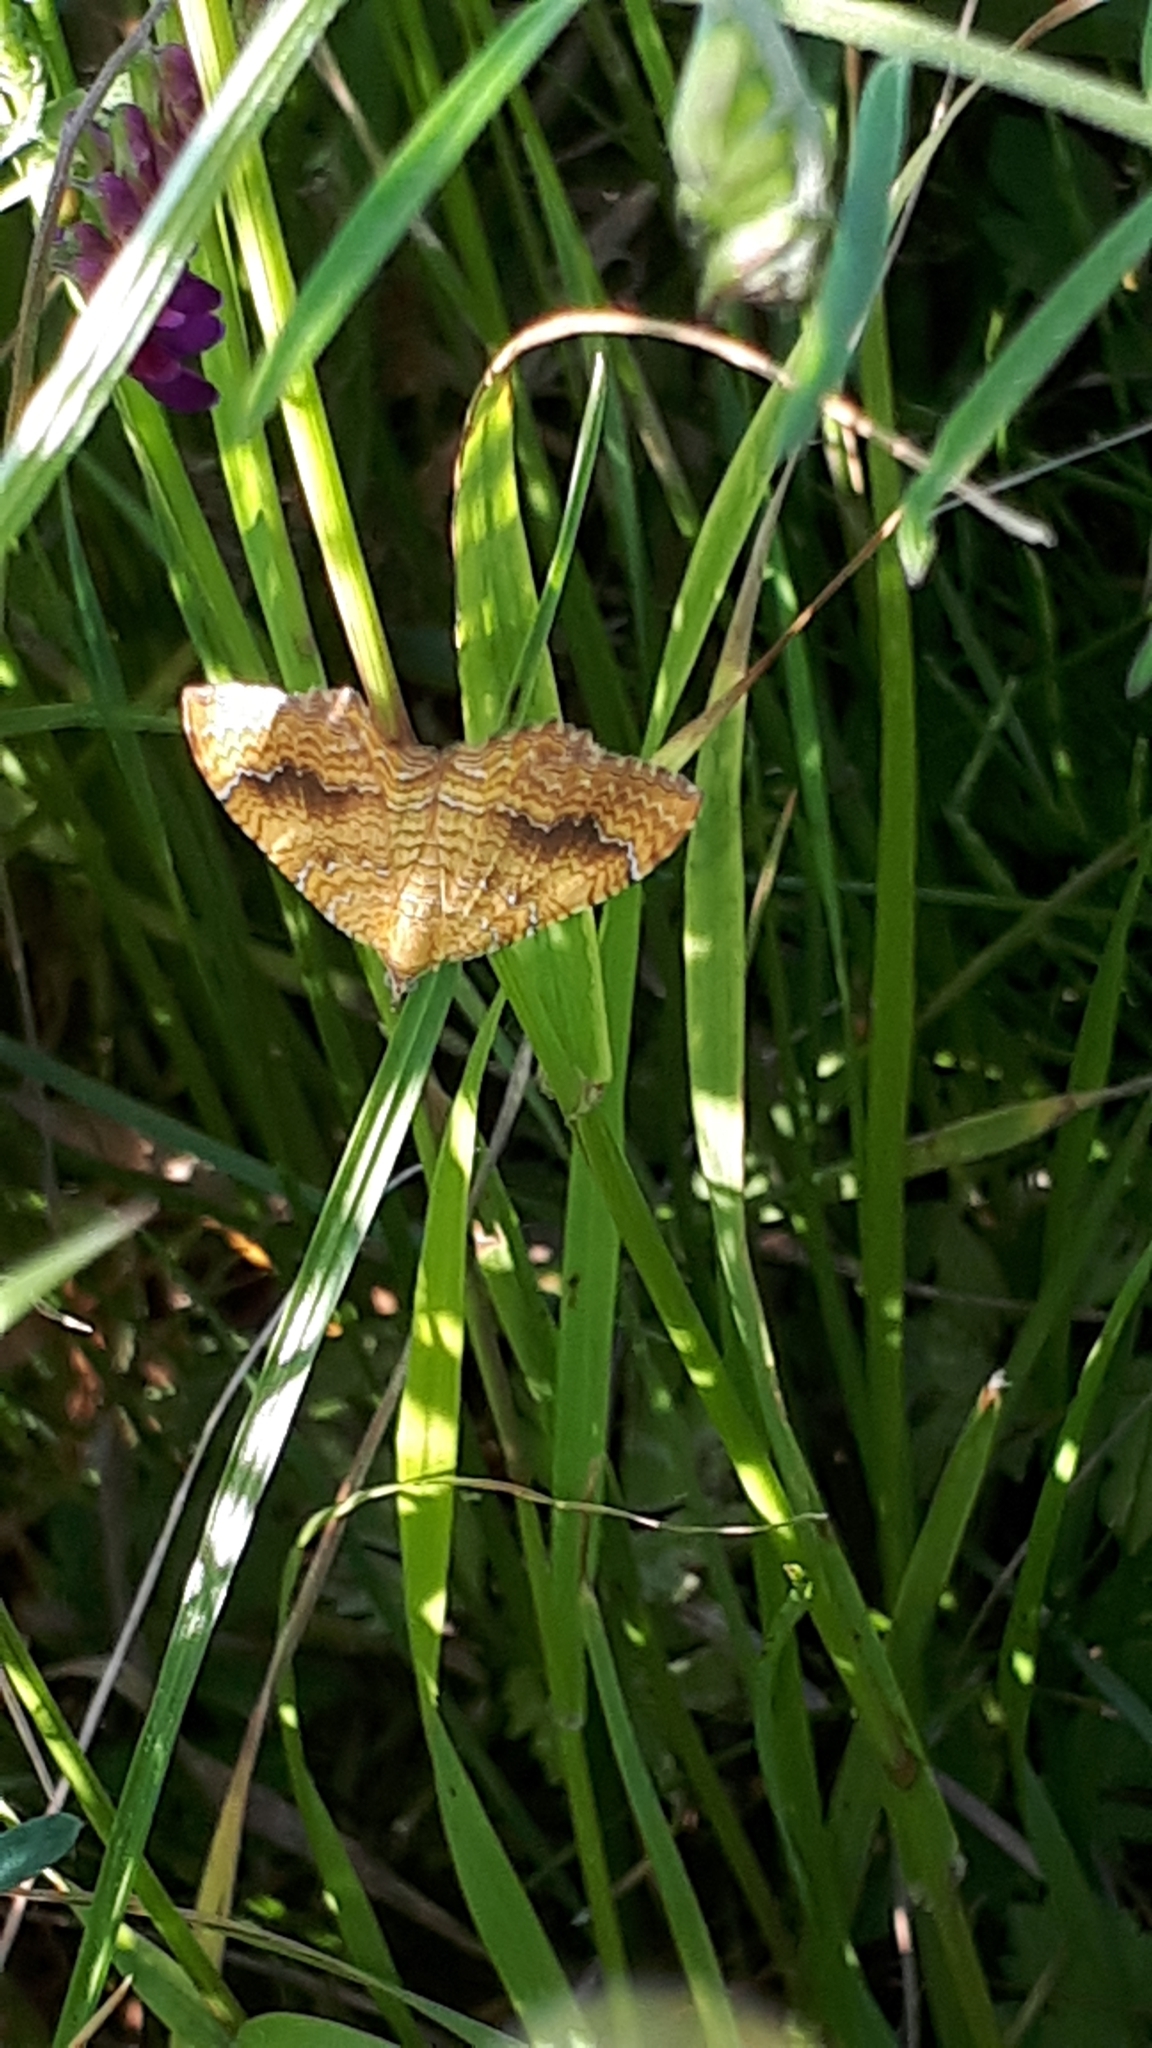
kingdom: Animalia
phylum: Arthropoda
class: Insecta
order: Lepidoptera
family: Geometridae
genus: Camptogramma
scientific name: Camptogramma bilineata
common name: Yellow shell
